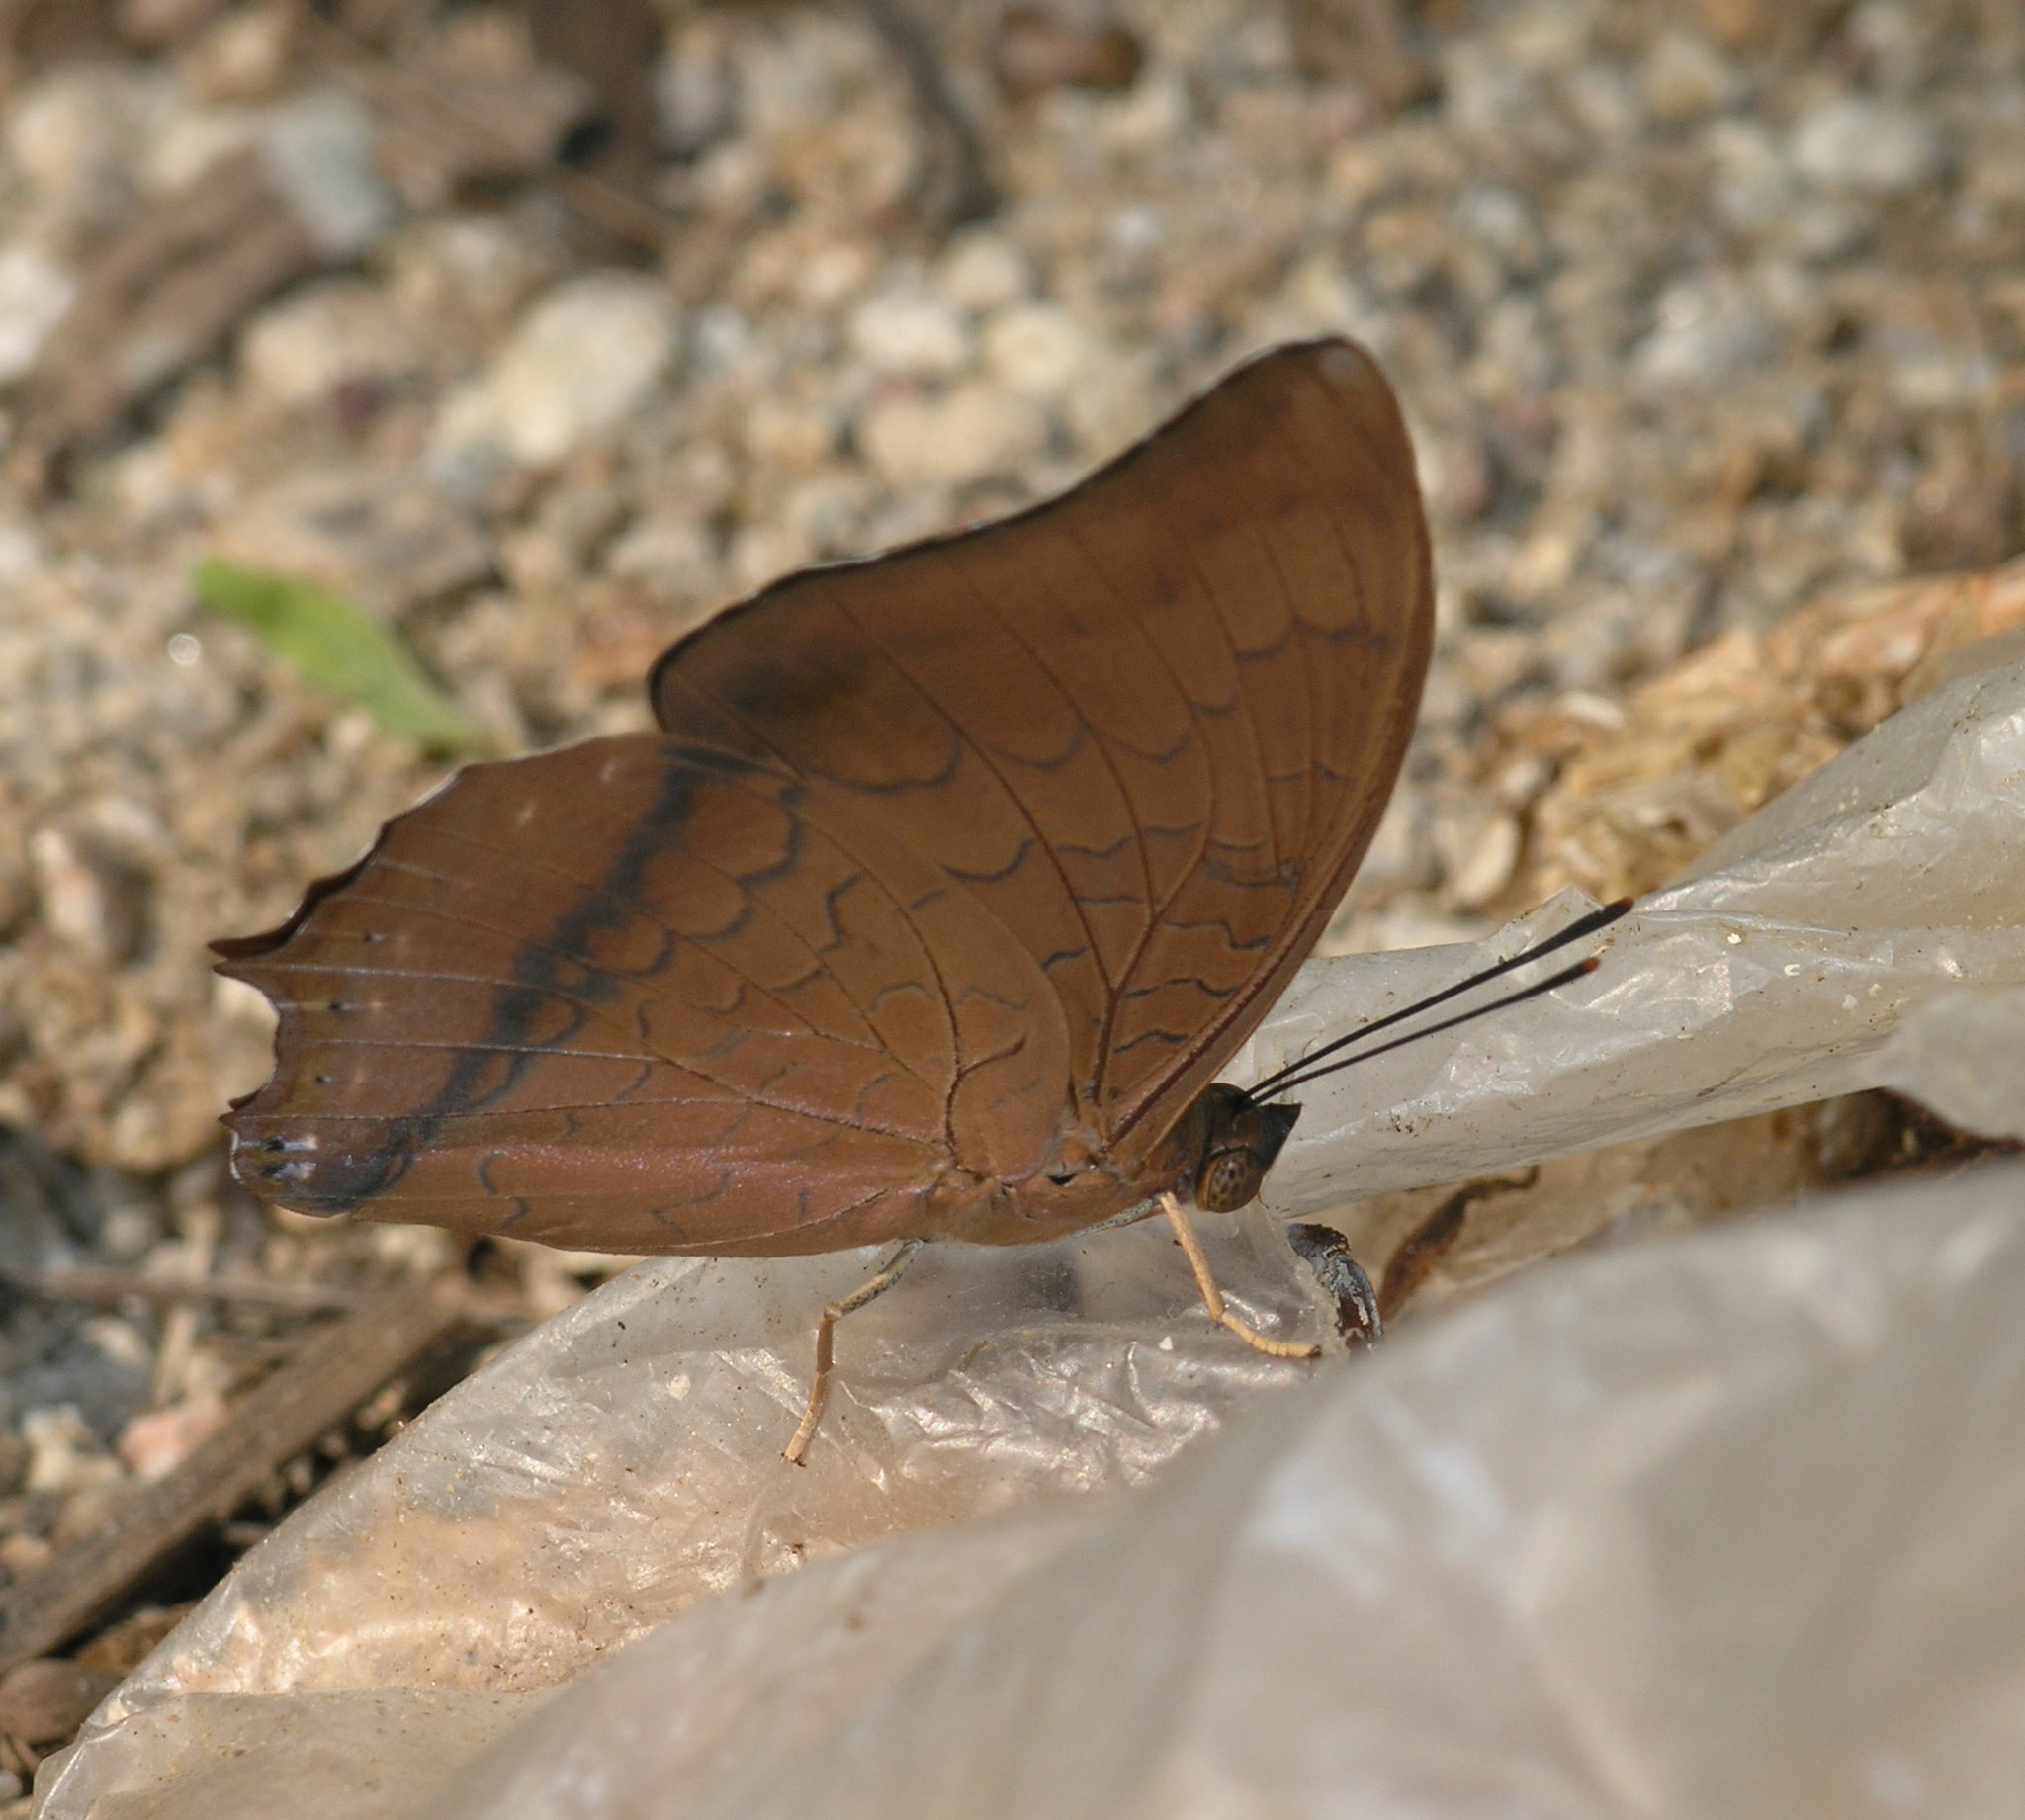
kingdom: Animalia
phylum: Arthropoda
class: Insecta
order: Lepidoptera
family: Nymphalidae
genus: Charaxes
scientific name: Charaxes bernardus
